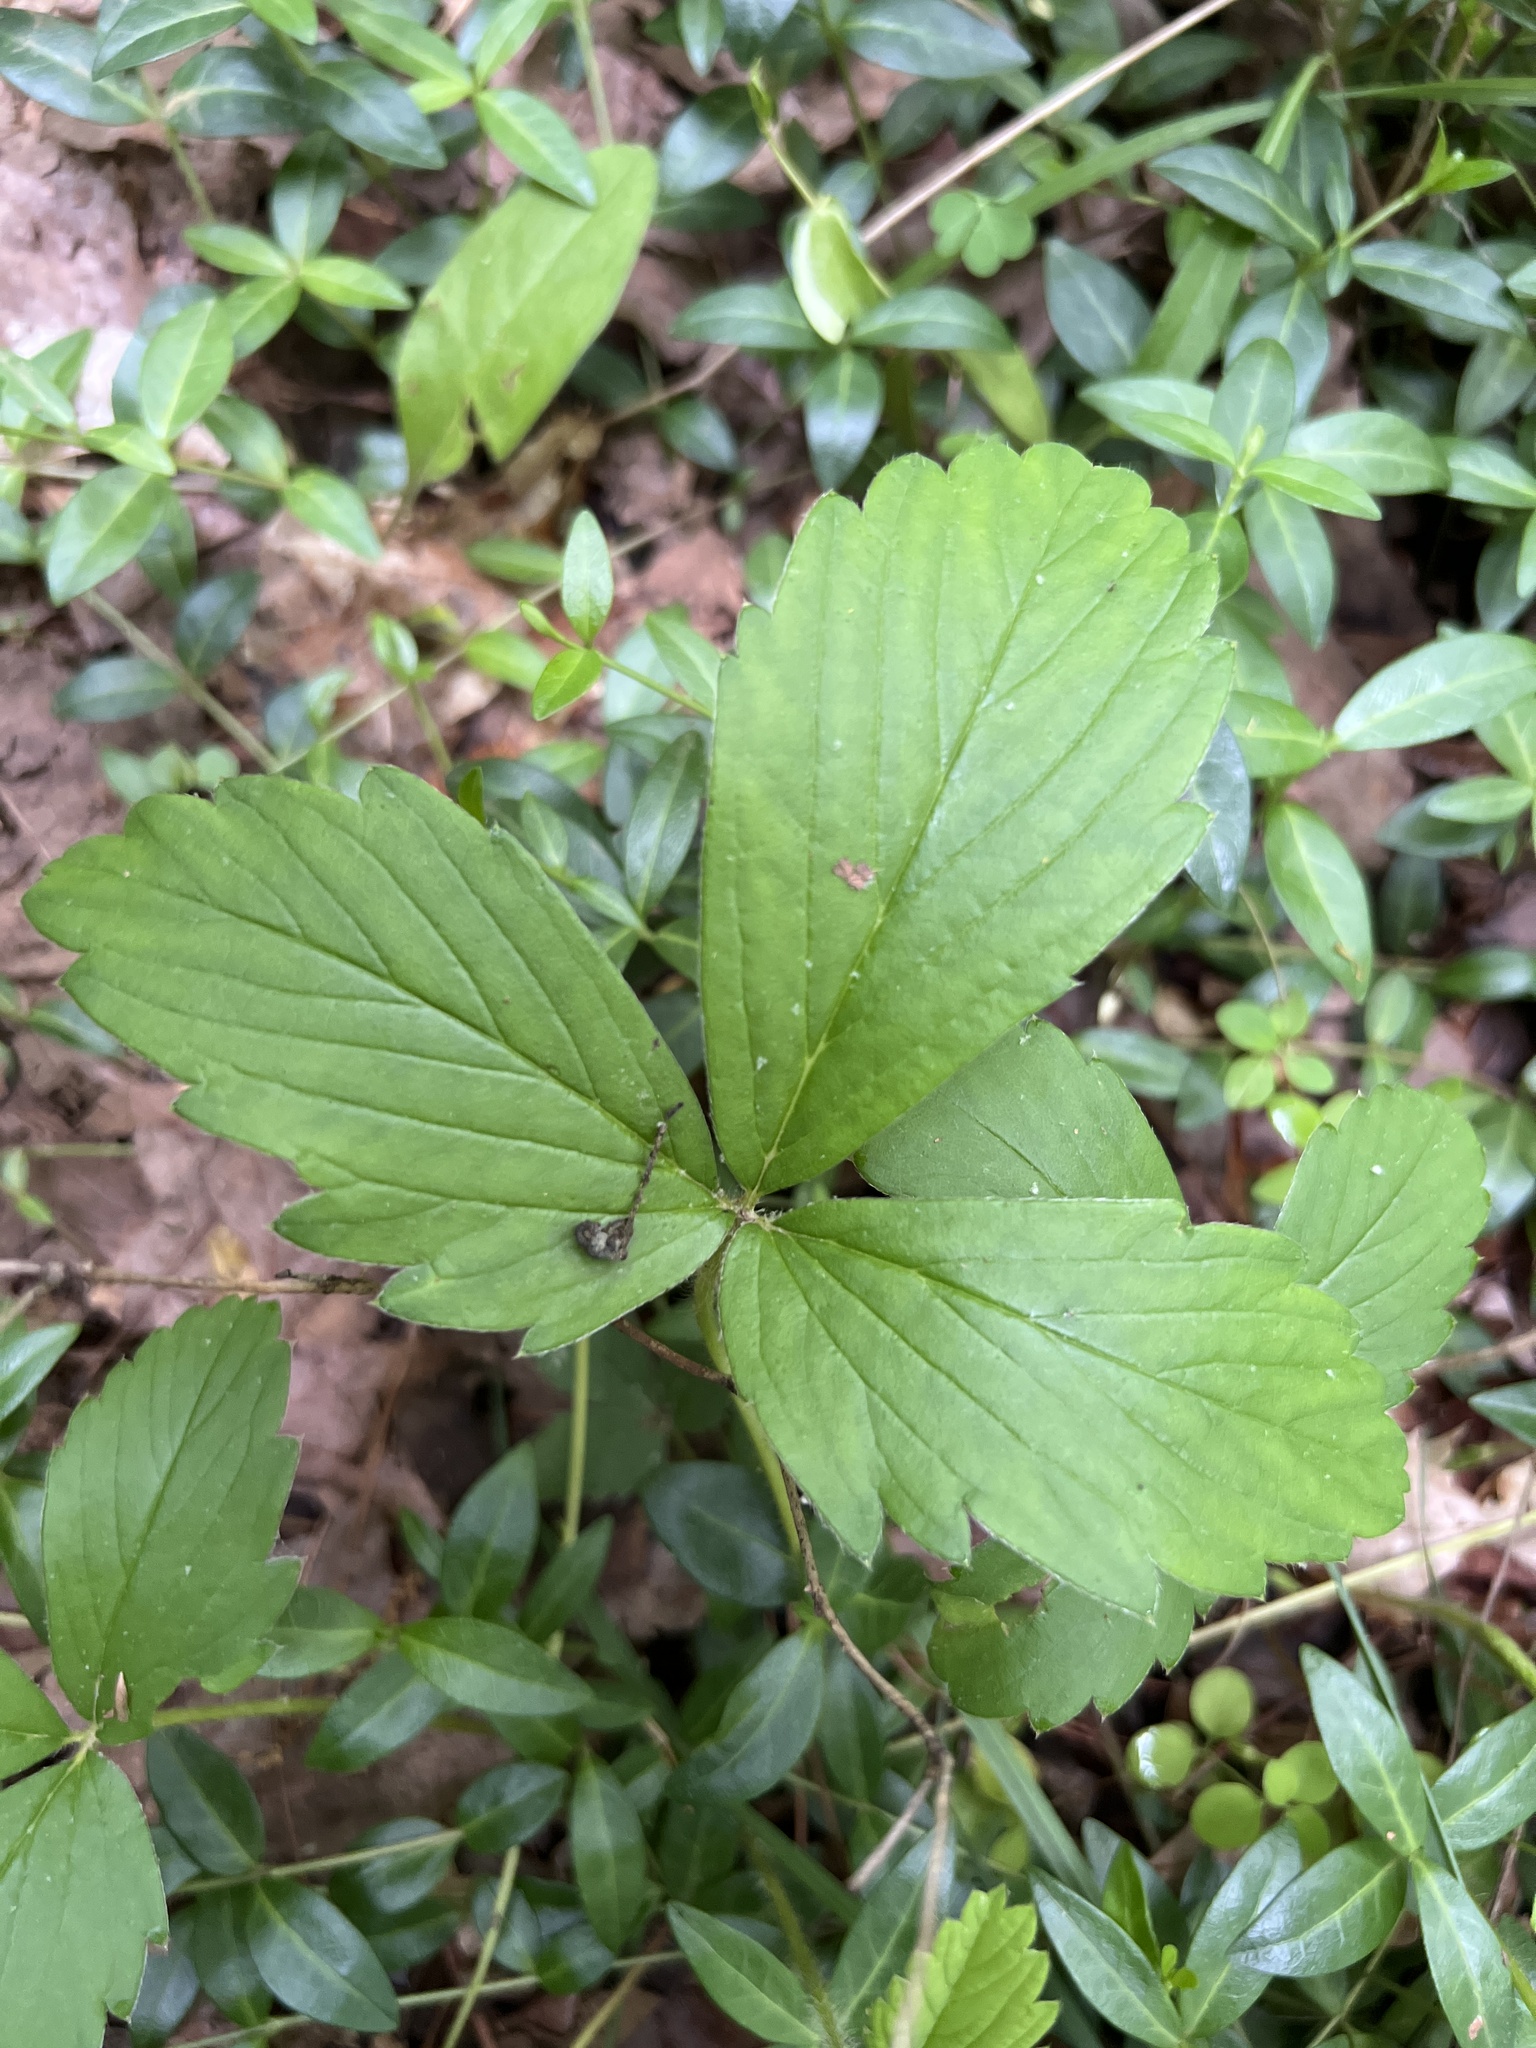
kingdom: Plantae
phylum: Tracheophyta
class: Magnoliopsida
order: Rosales
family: Rosaceae
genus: Fragaria
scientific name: Fragaria virginiana
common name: Thickleaved wild strawberry
